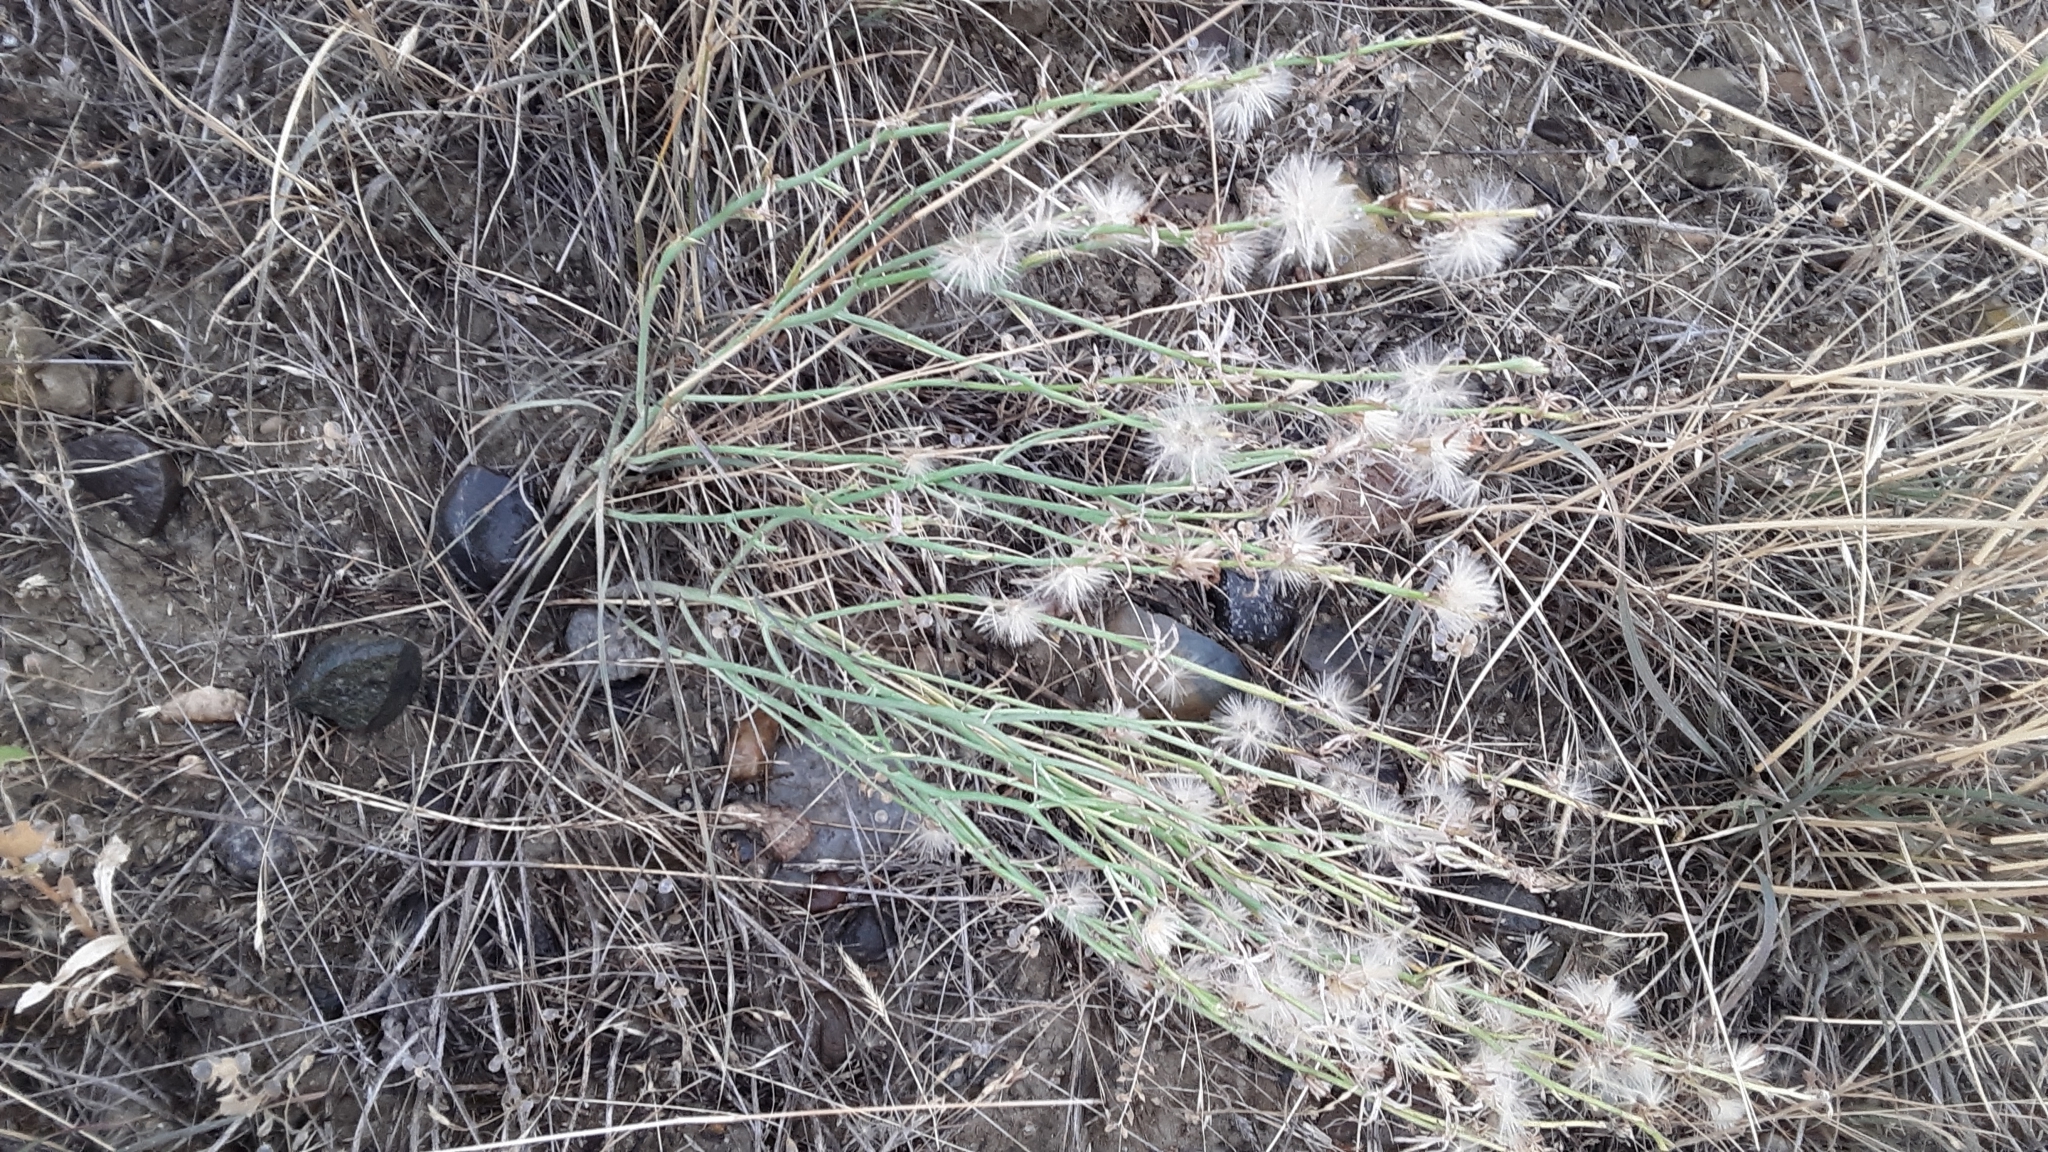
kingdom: Plantae
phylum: Tracheophyta
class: Magnoliopsida
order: Asterales
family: Asteraceae
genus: Lygodesmia
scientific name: Lygodesmia juncea
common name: Common skeletonweed
